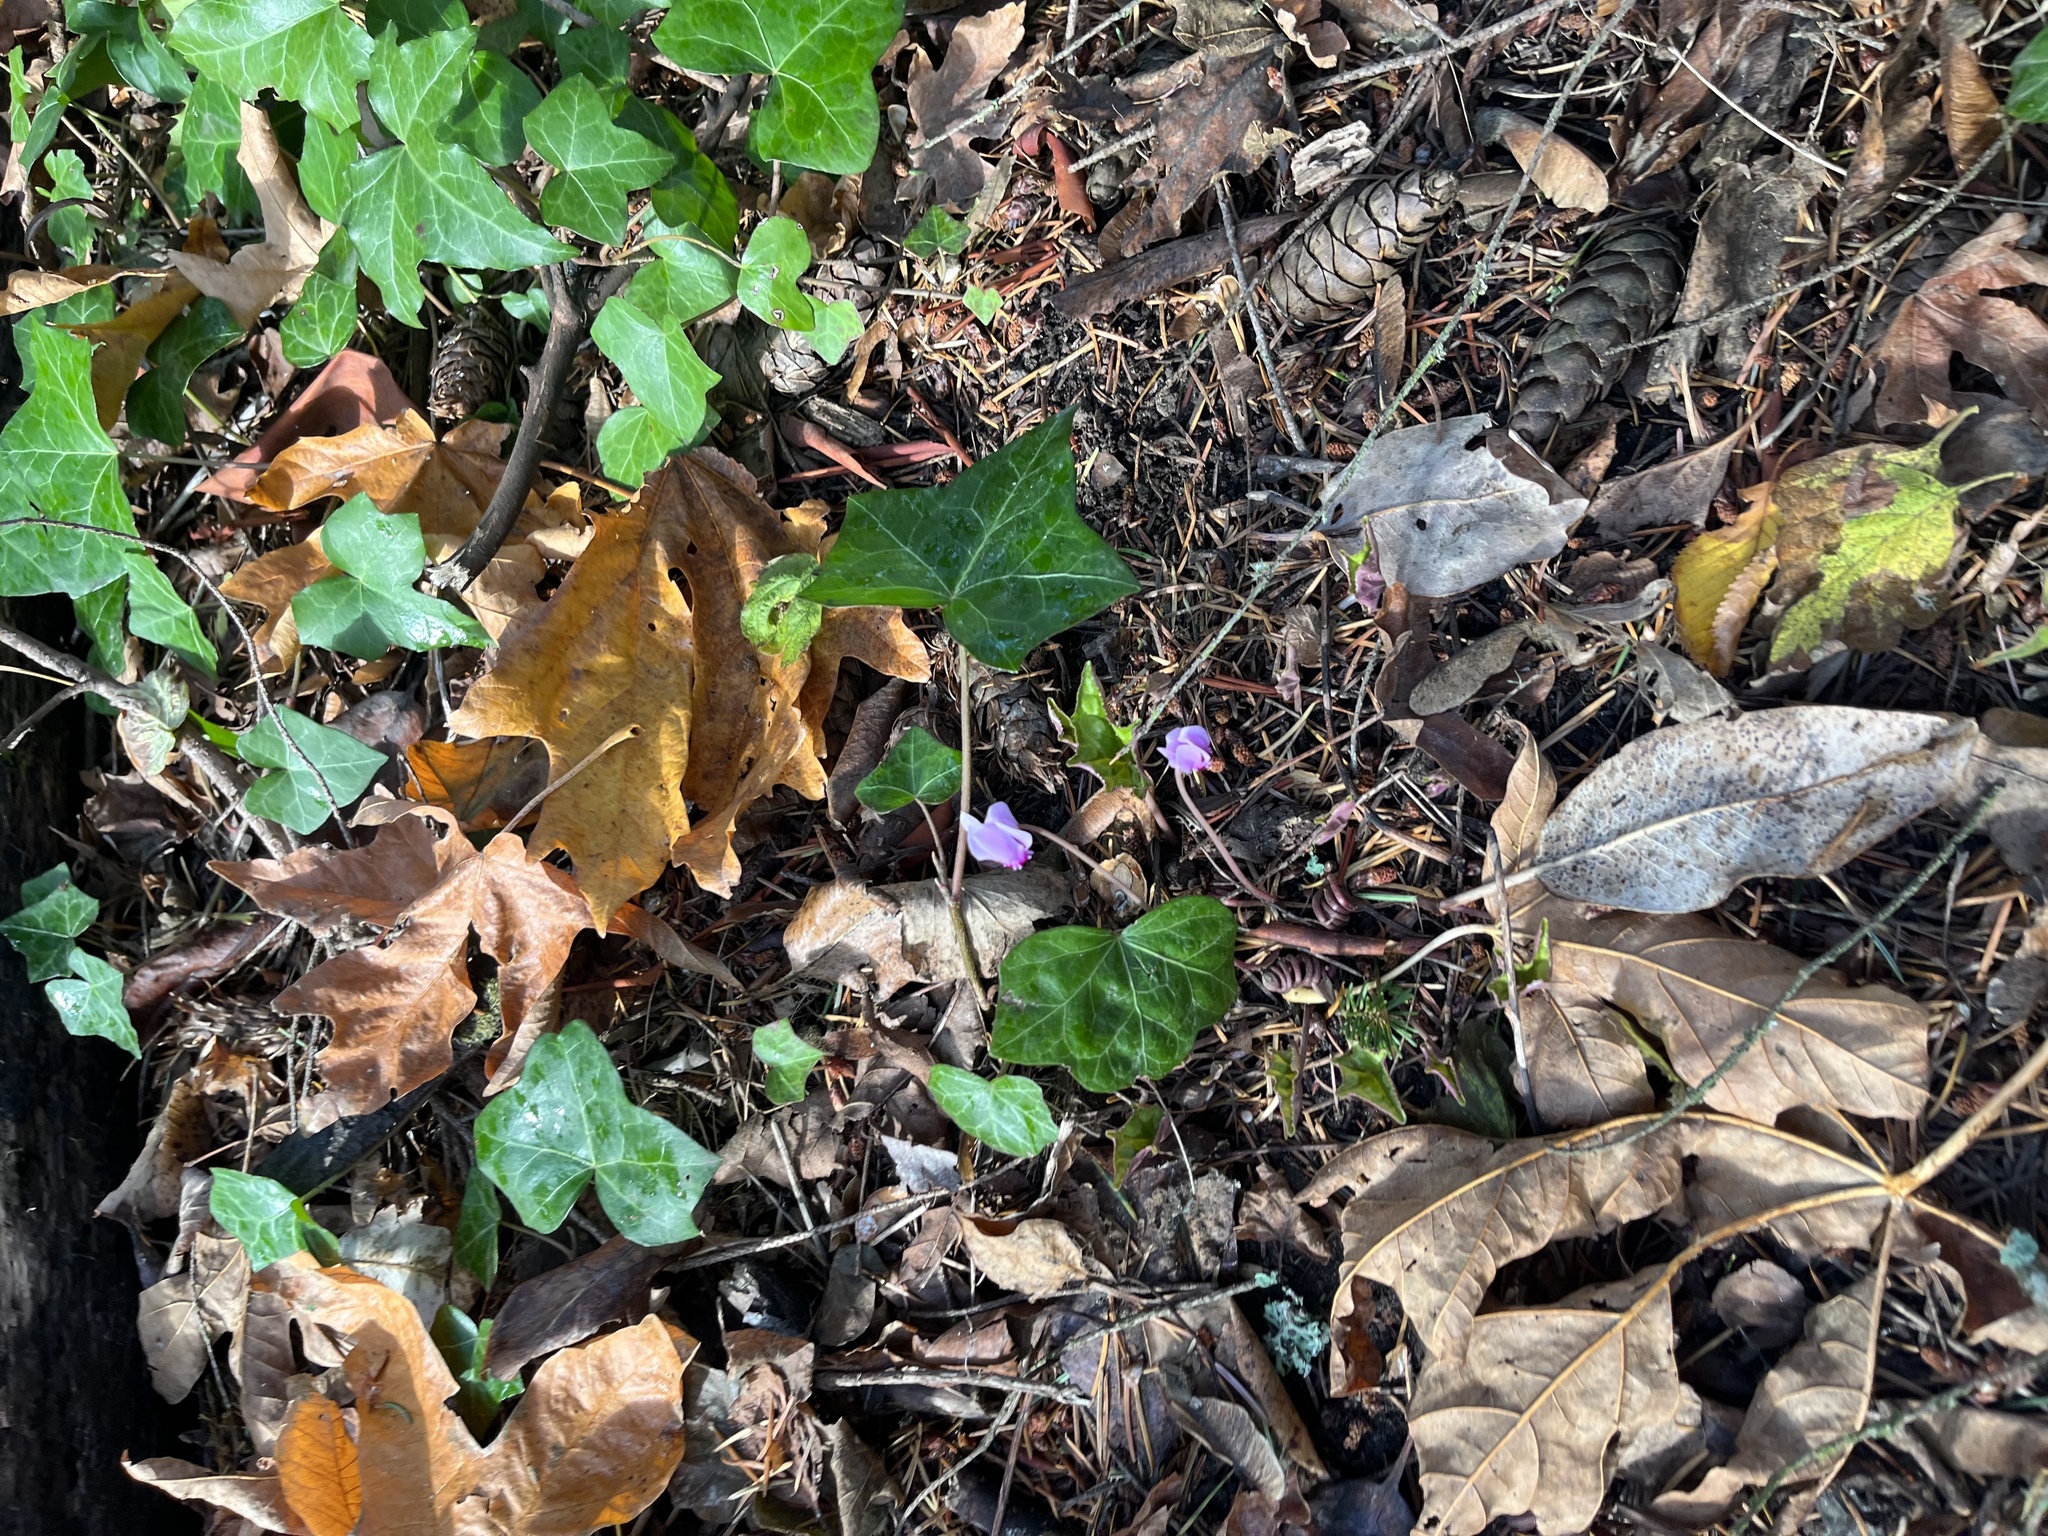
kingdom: Plantae
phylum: Tracheophyta
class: Magnoliopsida
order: Ericales
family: Primulaceae
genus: Cyclamen
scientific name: Cyclamen hederifolium
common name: Sowbread
